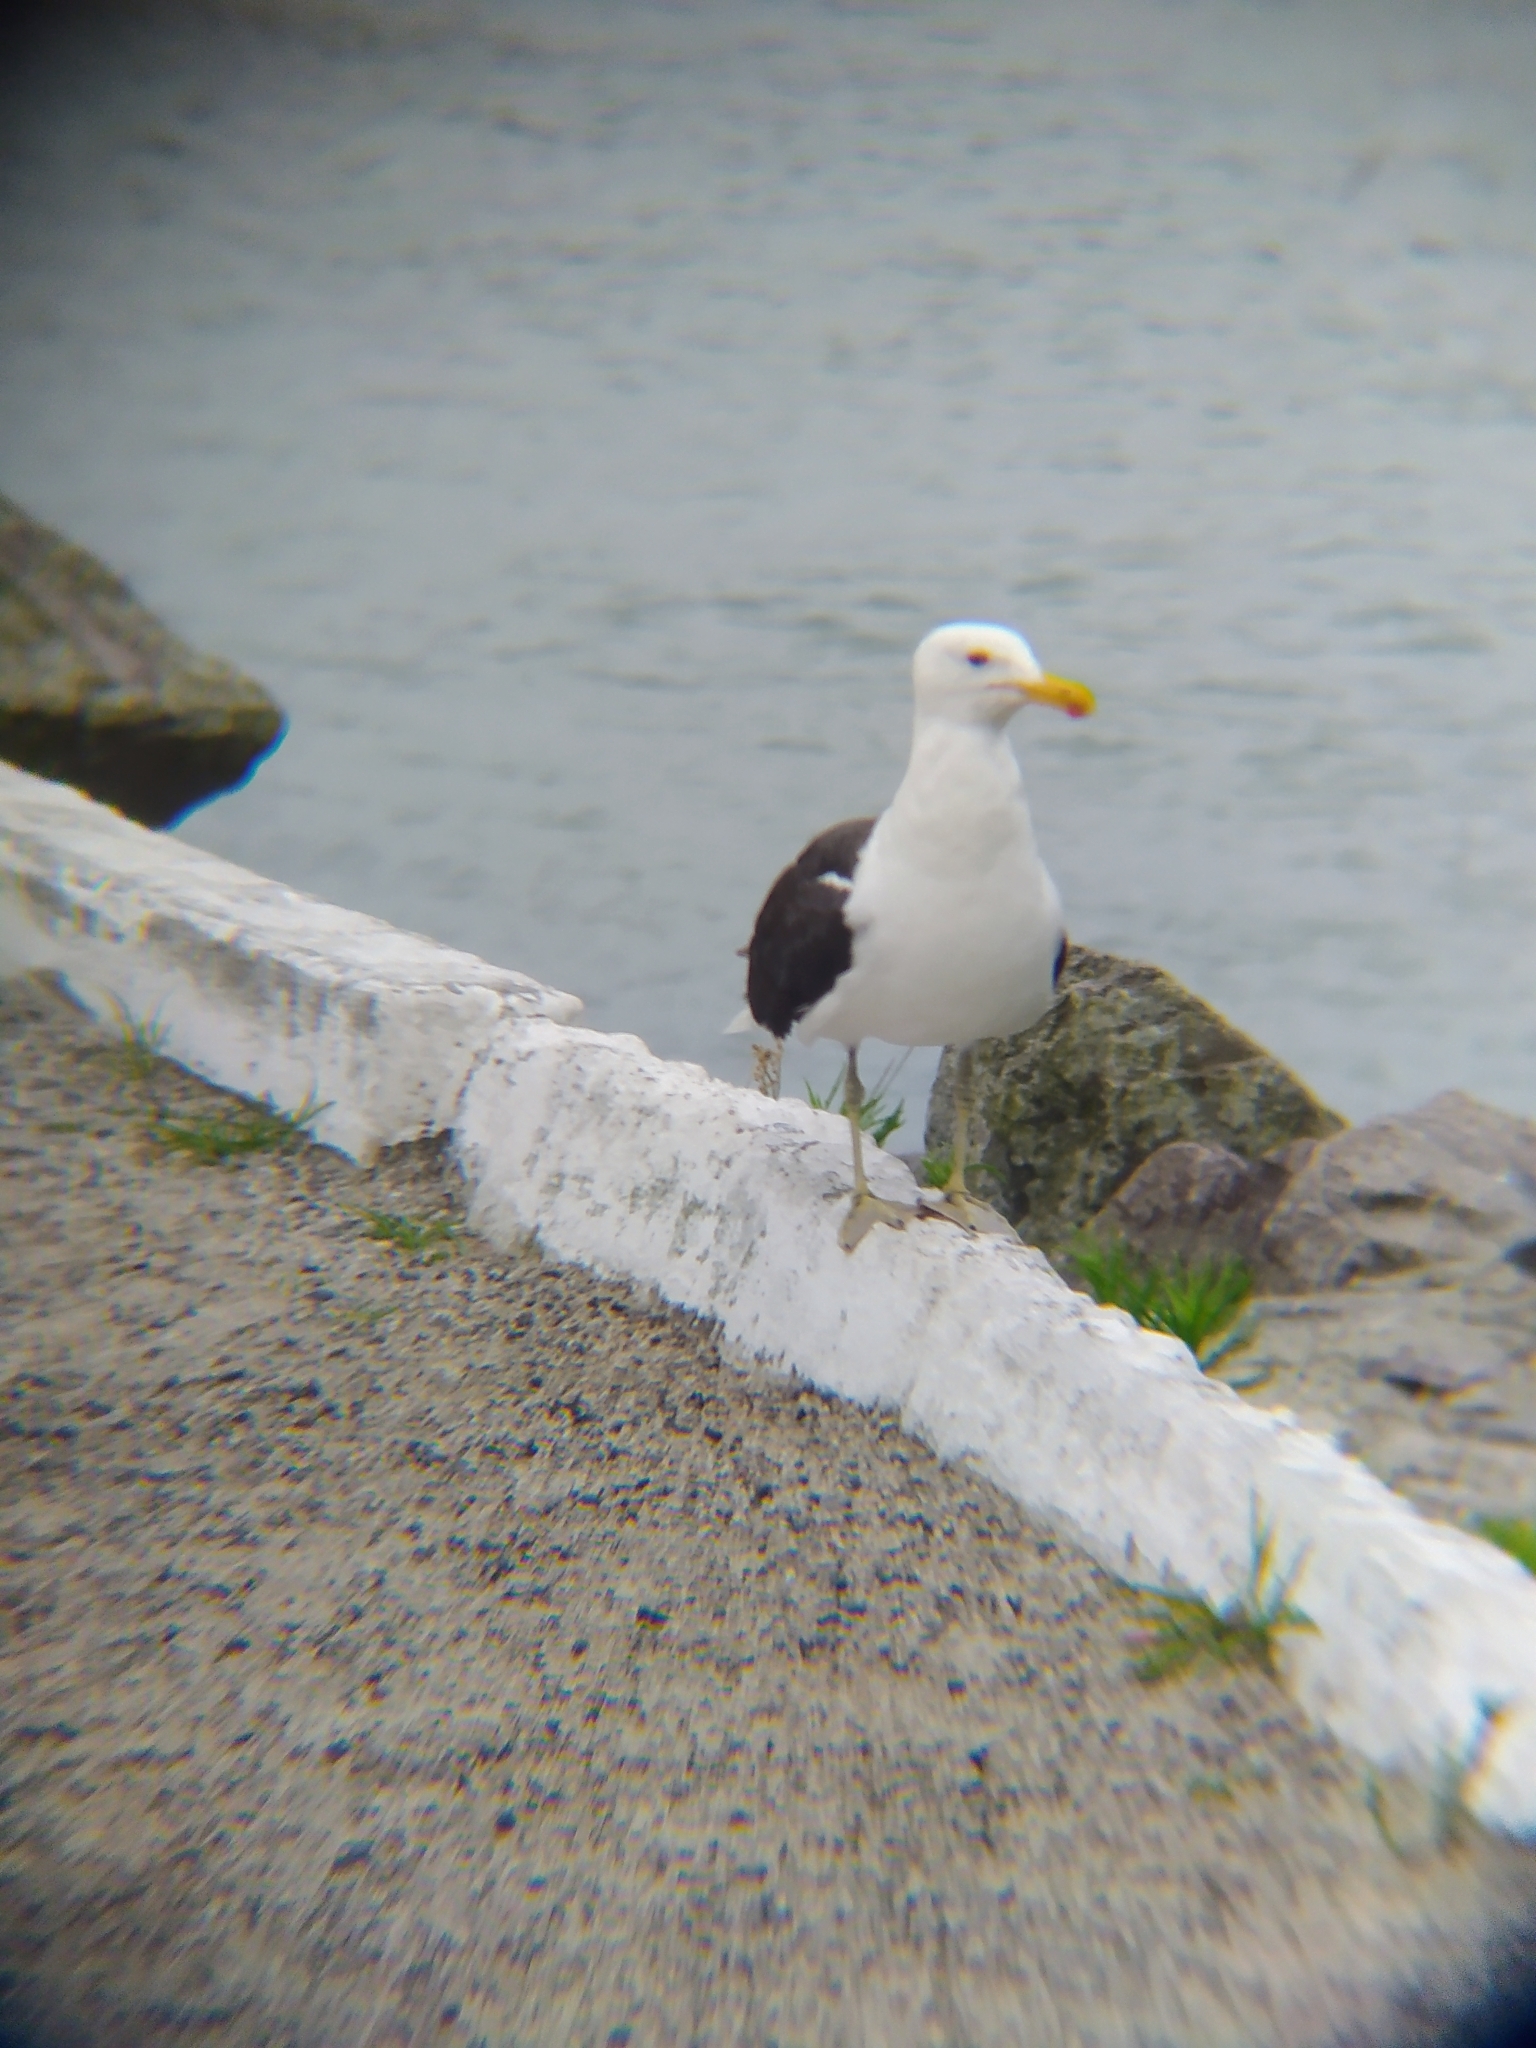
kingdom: Animalia
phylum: Chordata
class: Aves
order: Charadriiformes
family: Laridae
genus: Larus
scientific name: Larus dominicanus
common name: Kelp gull
